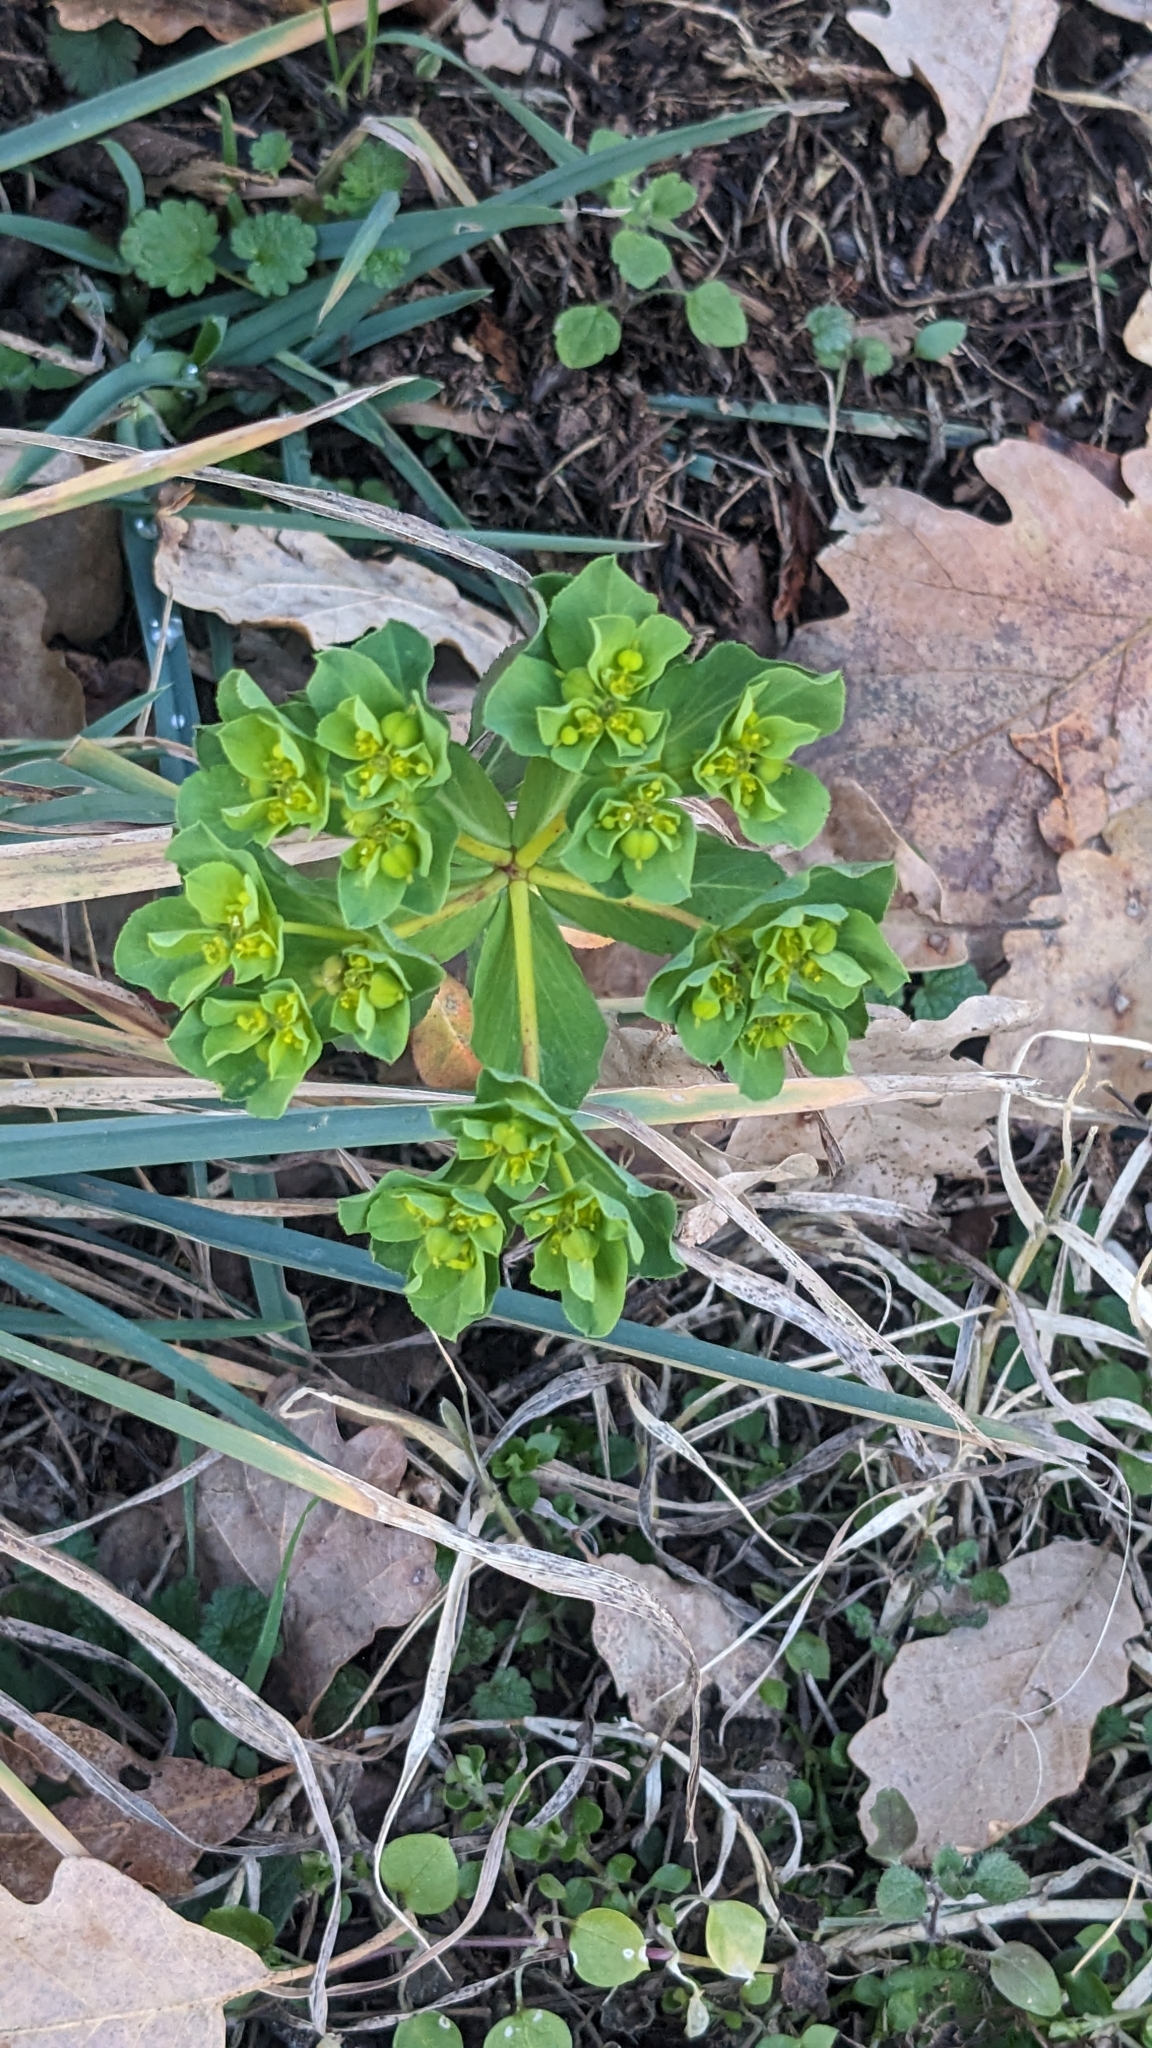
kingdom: Plantae
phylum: Tracheophyta
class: Magnoliopsida
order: Malpighiales
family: Euphorbiaceae
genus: Euphorbia
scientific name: Euphorbia helioscopia
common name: Sun spurge
